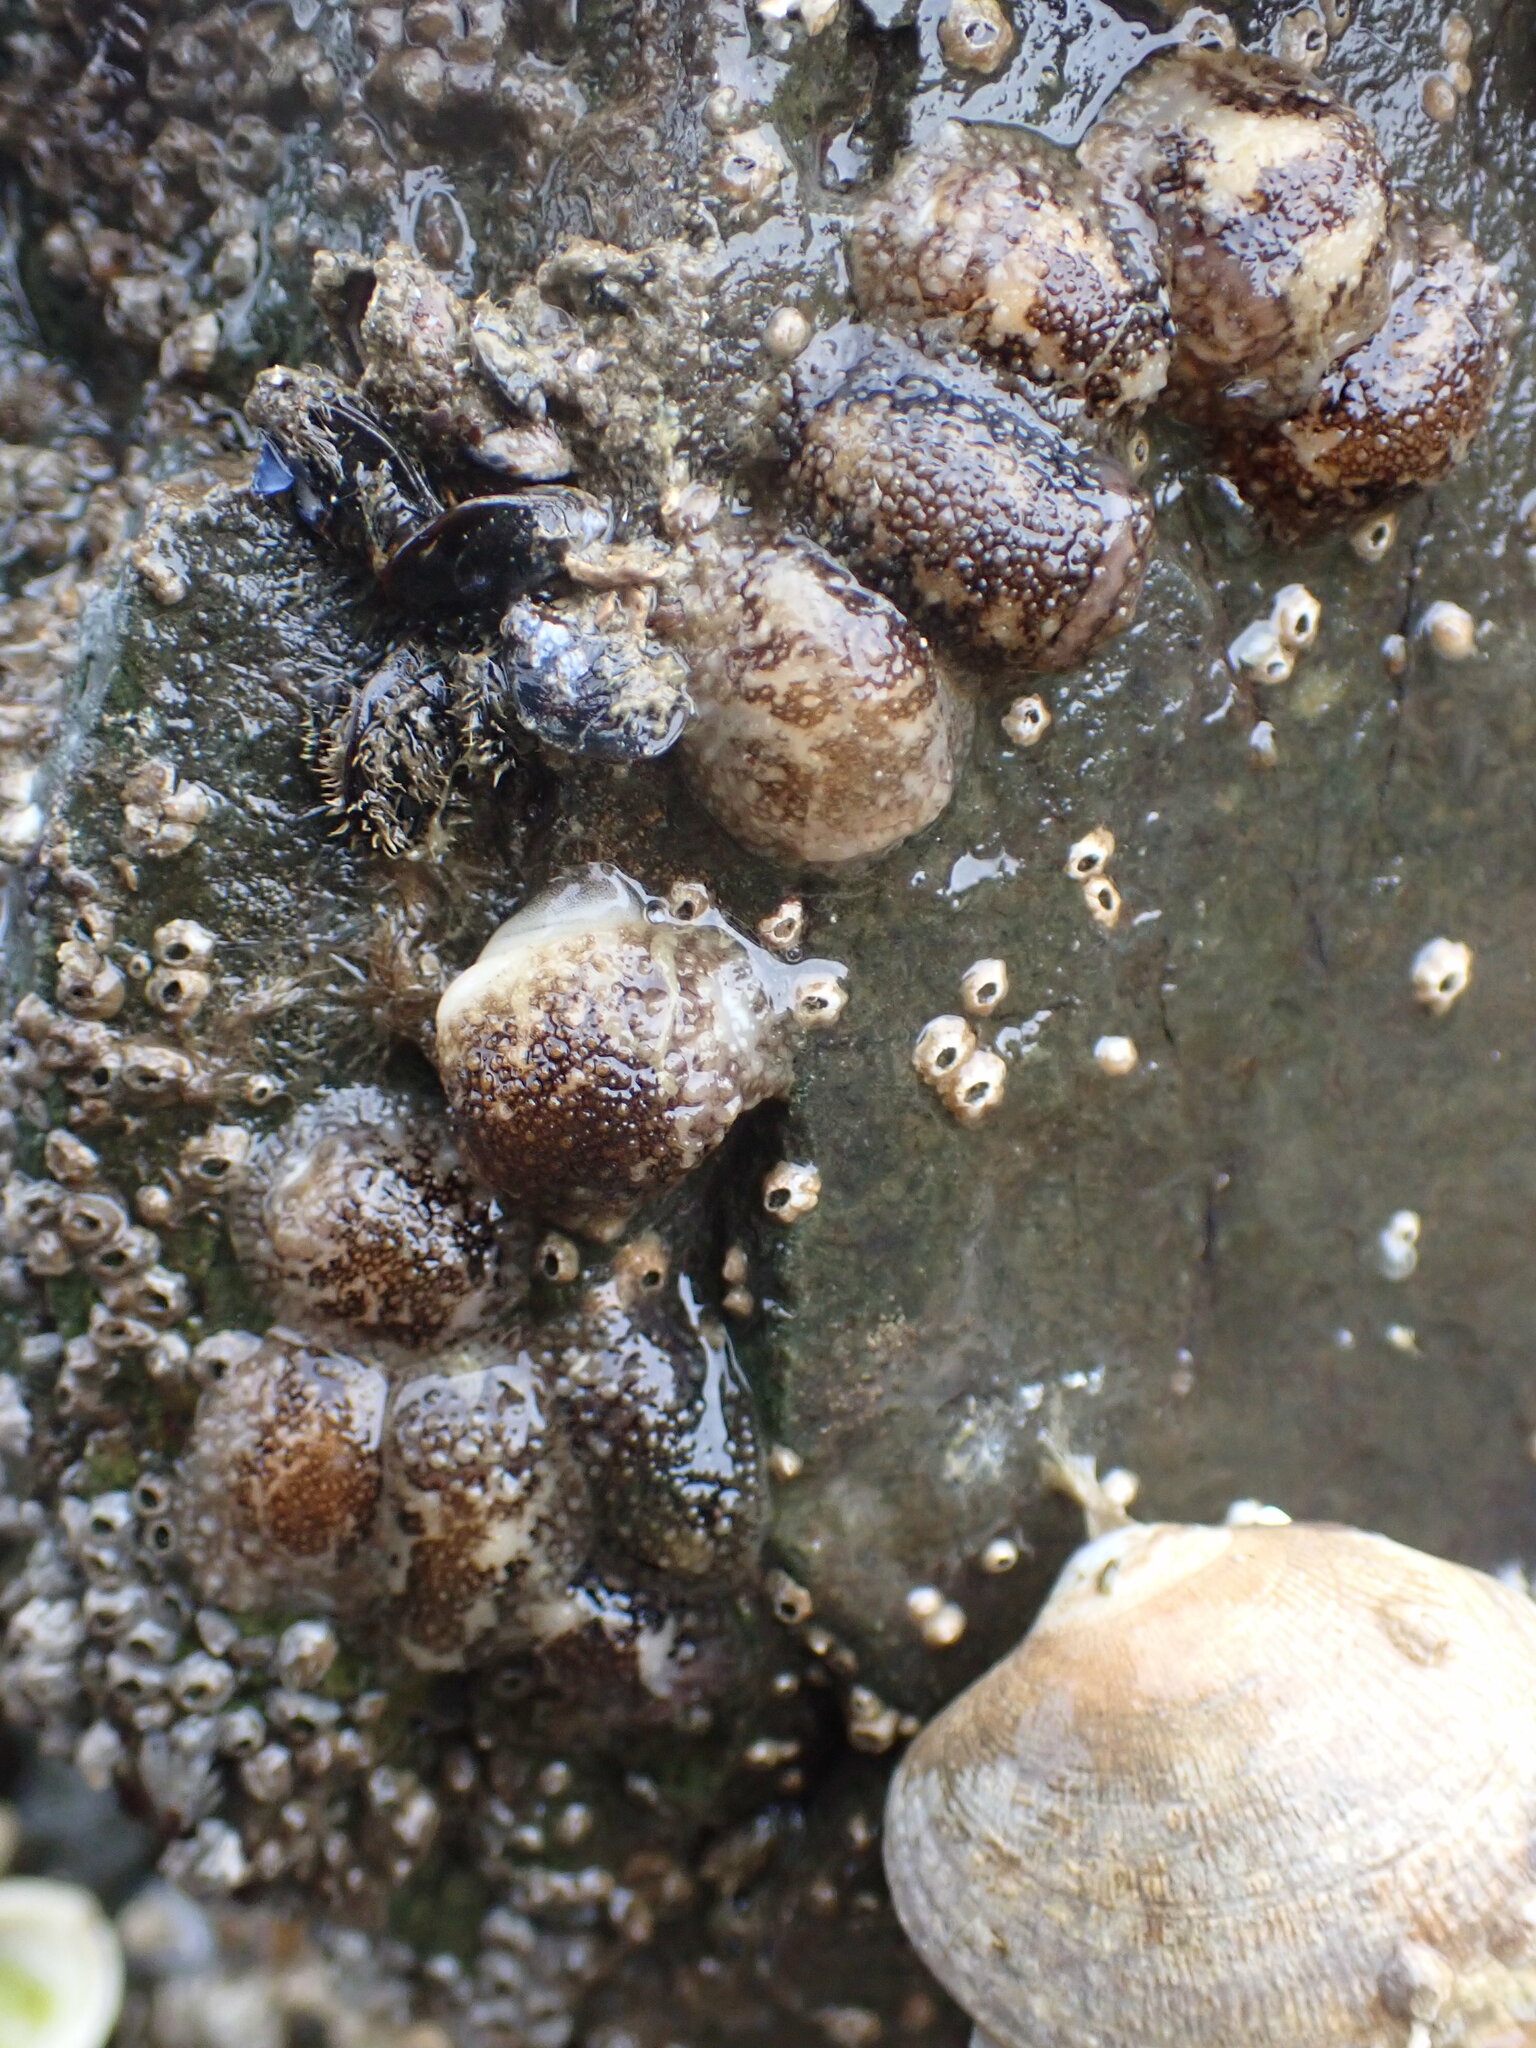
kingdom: Animalia
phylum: Mollusca
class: Gastropoda
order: Nudibranchia
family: Onchidorididae
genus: Onchidoris
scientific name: Onchidoris bilamellata
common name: Barnacle-eating onchidoris
